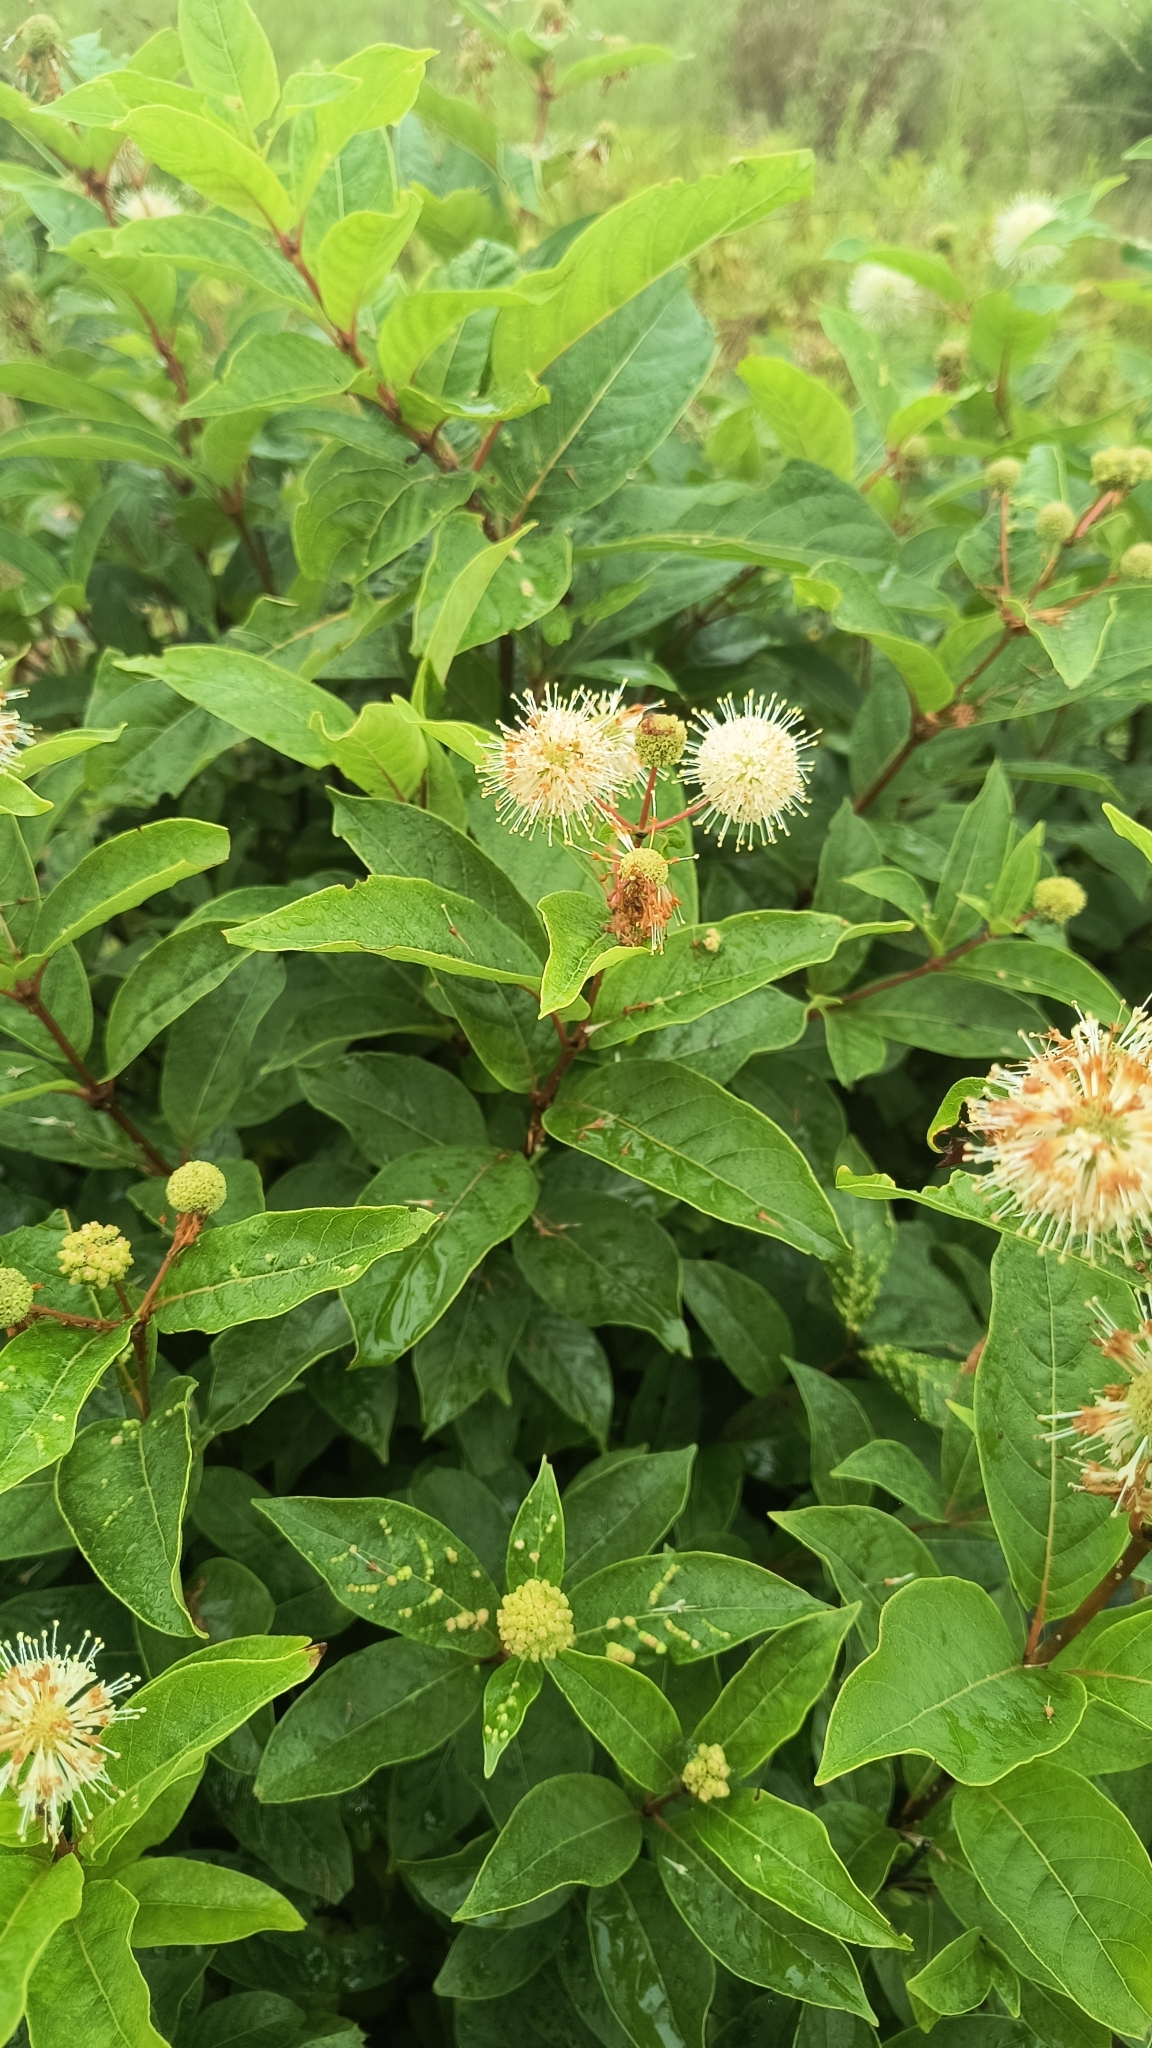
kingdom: Plantae
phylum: Tracheophyta
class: Magnoliopsida
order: Gentianales
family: Rubiaceae
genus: Cephalanthus
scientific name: Cephalanthus occidentalis
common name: Button-willow
